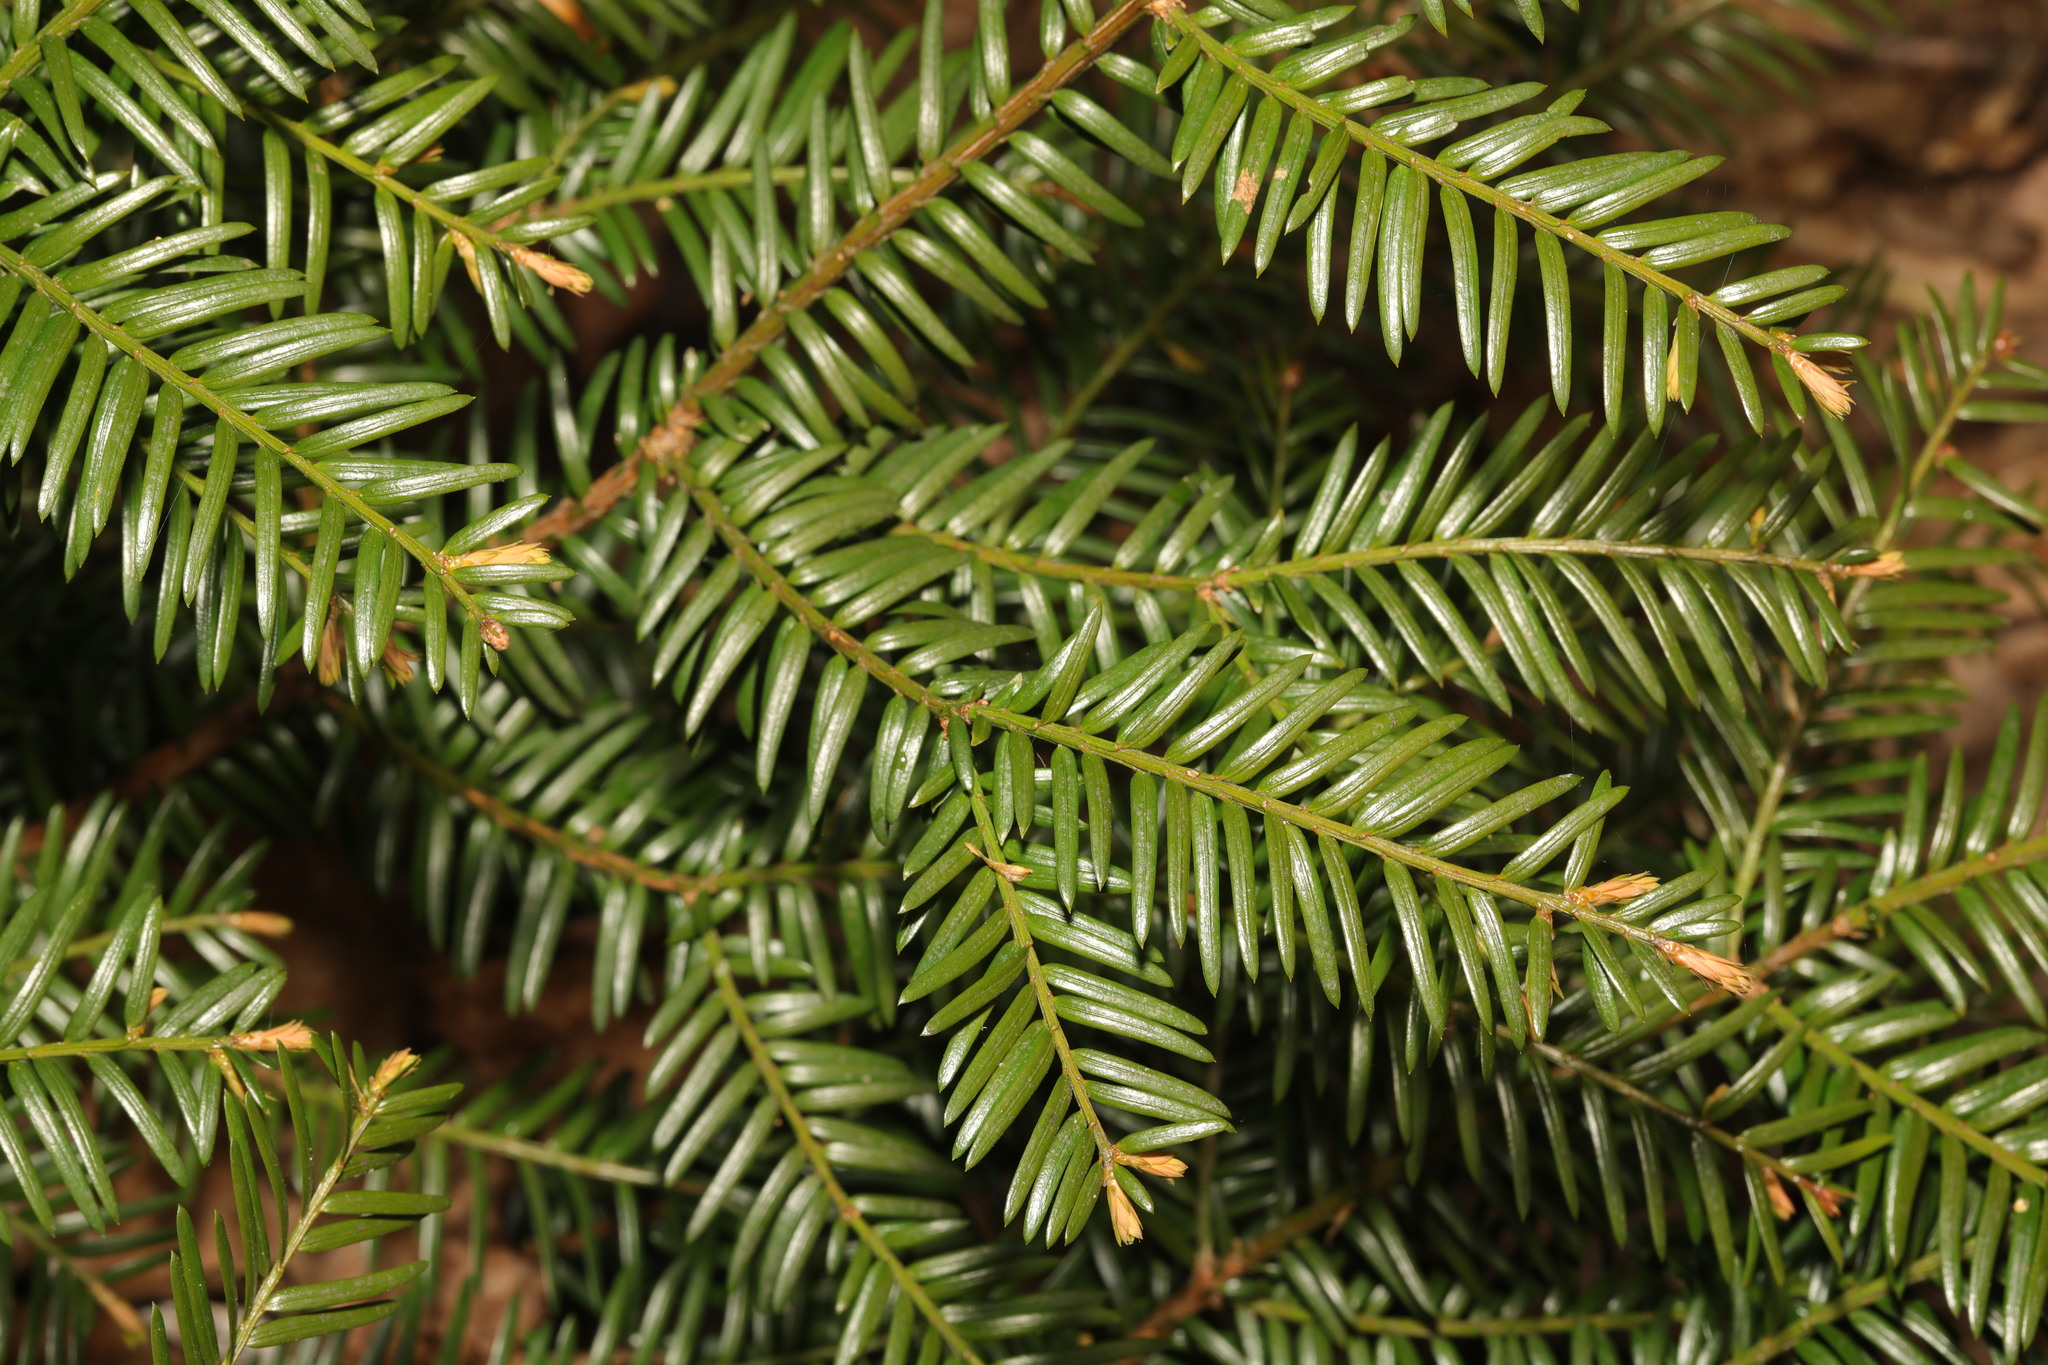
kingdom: Plantae
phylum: Tracheophyta
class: Pinopsida
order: Pinales
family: Taxaceae
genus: Taxus
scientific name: Taxus baccata
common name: Yew
